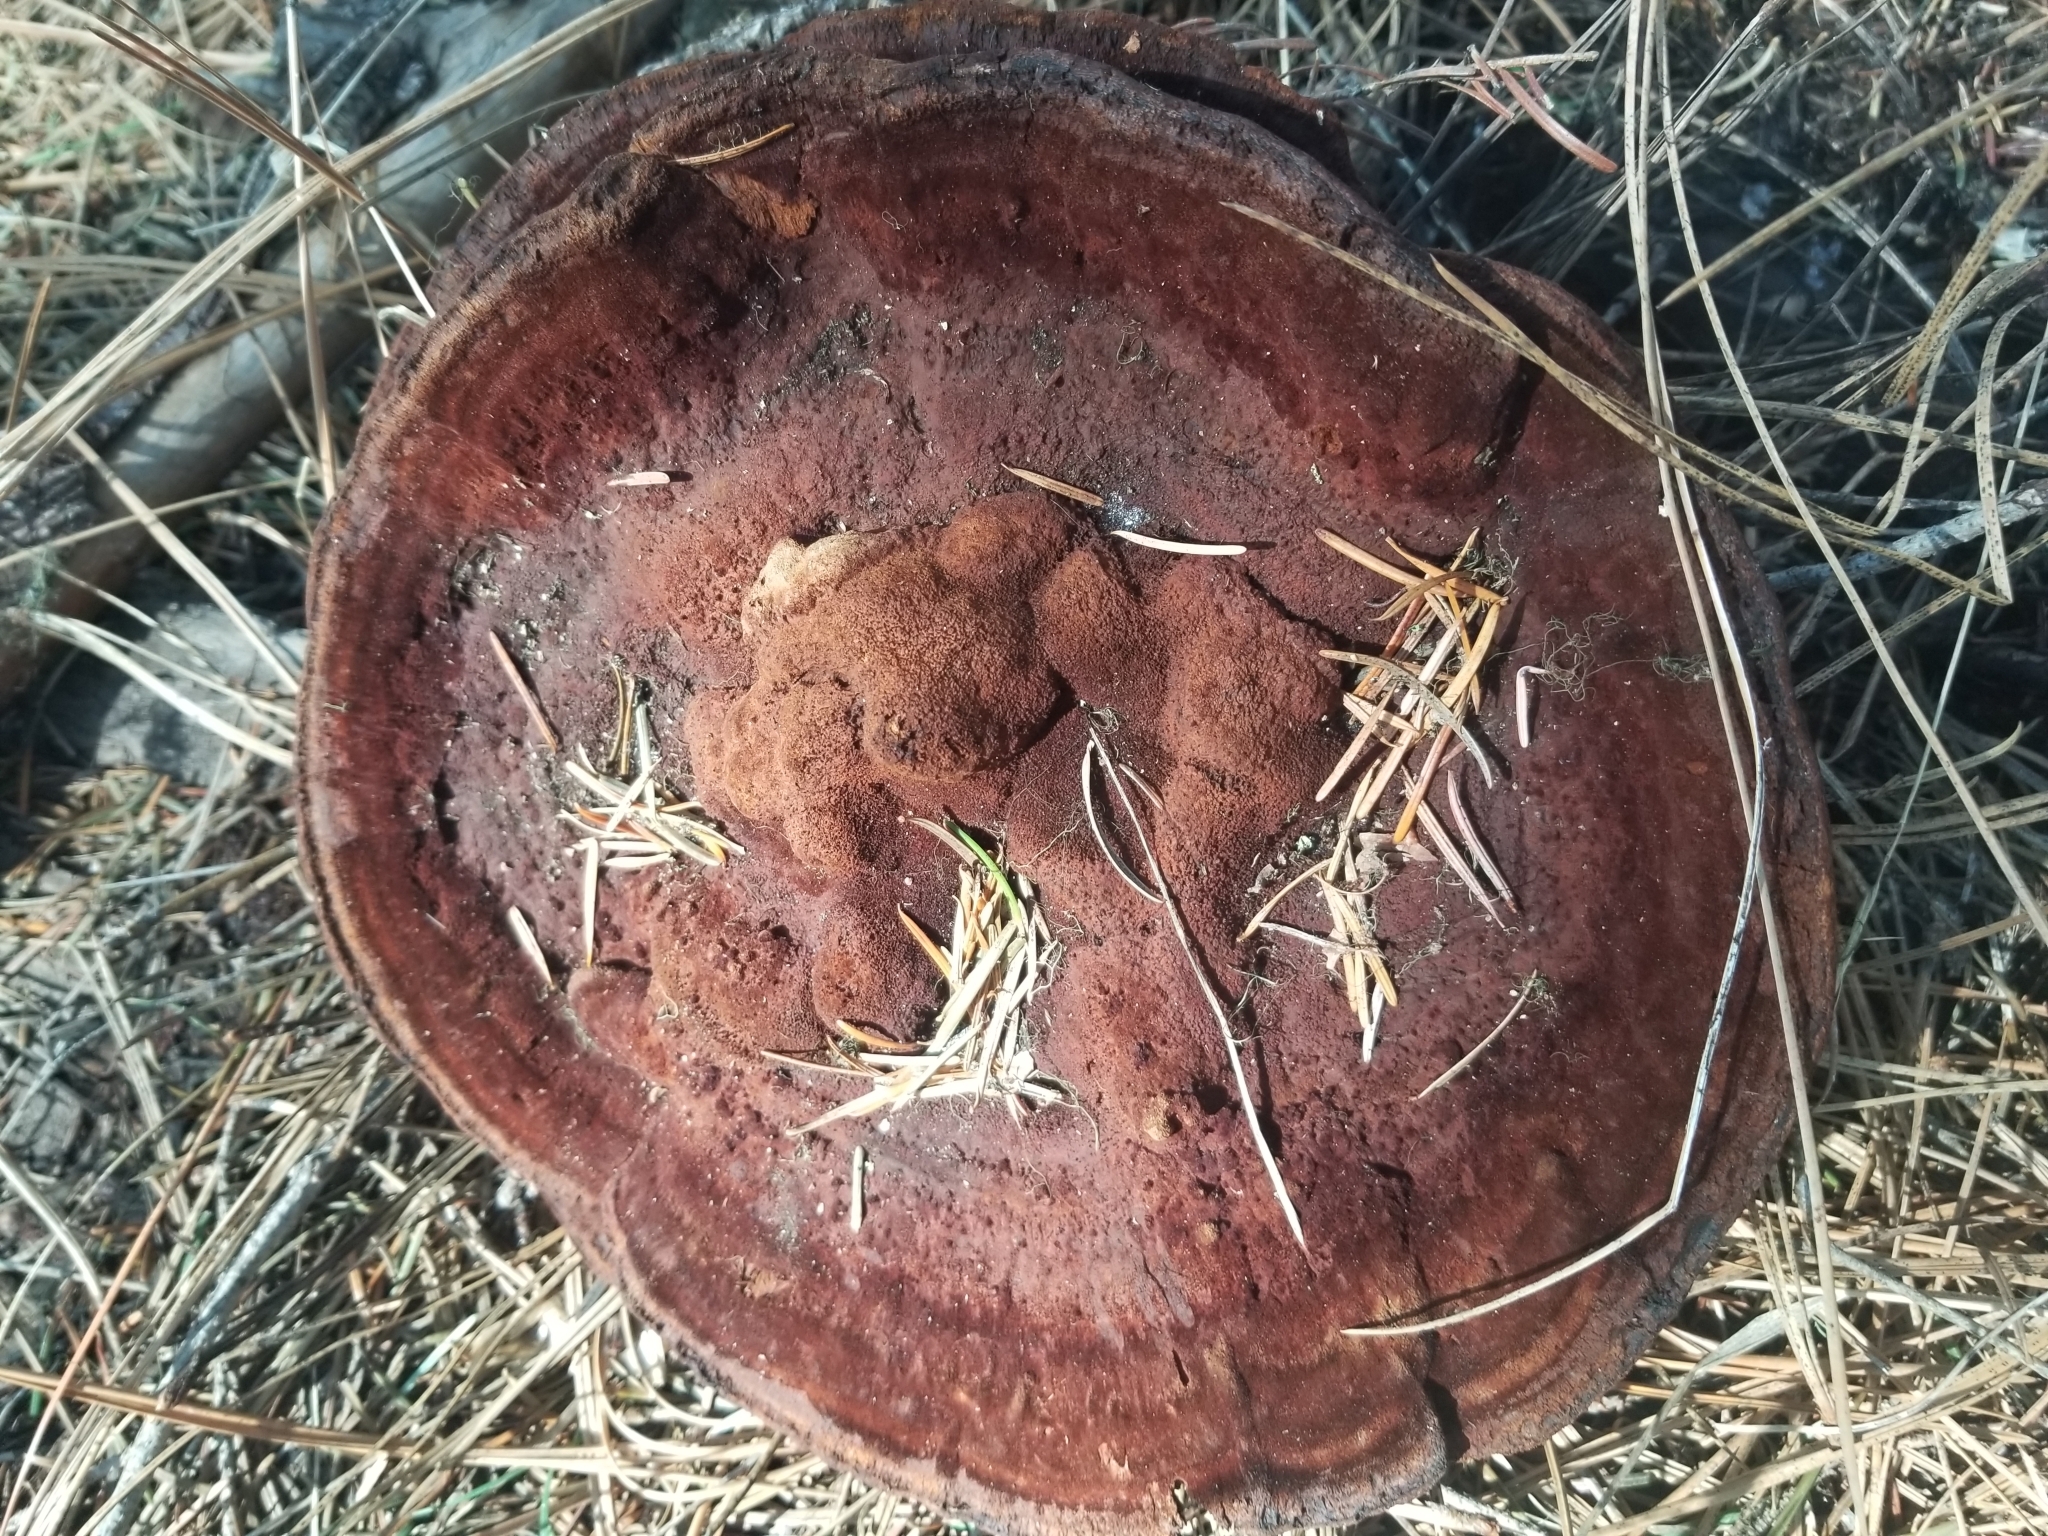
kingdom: Fungi
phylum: Basidiomycota
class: Agaricomycetes
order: Polyporales
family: Laetiporaceae
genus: Phaeolus
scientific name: Phaeolus schweinitzii
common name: Dyer's mazegill
